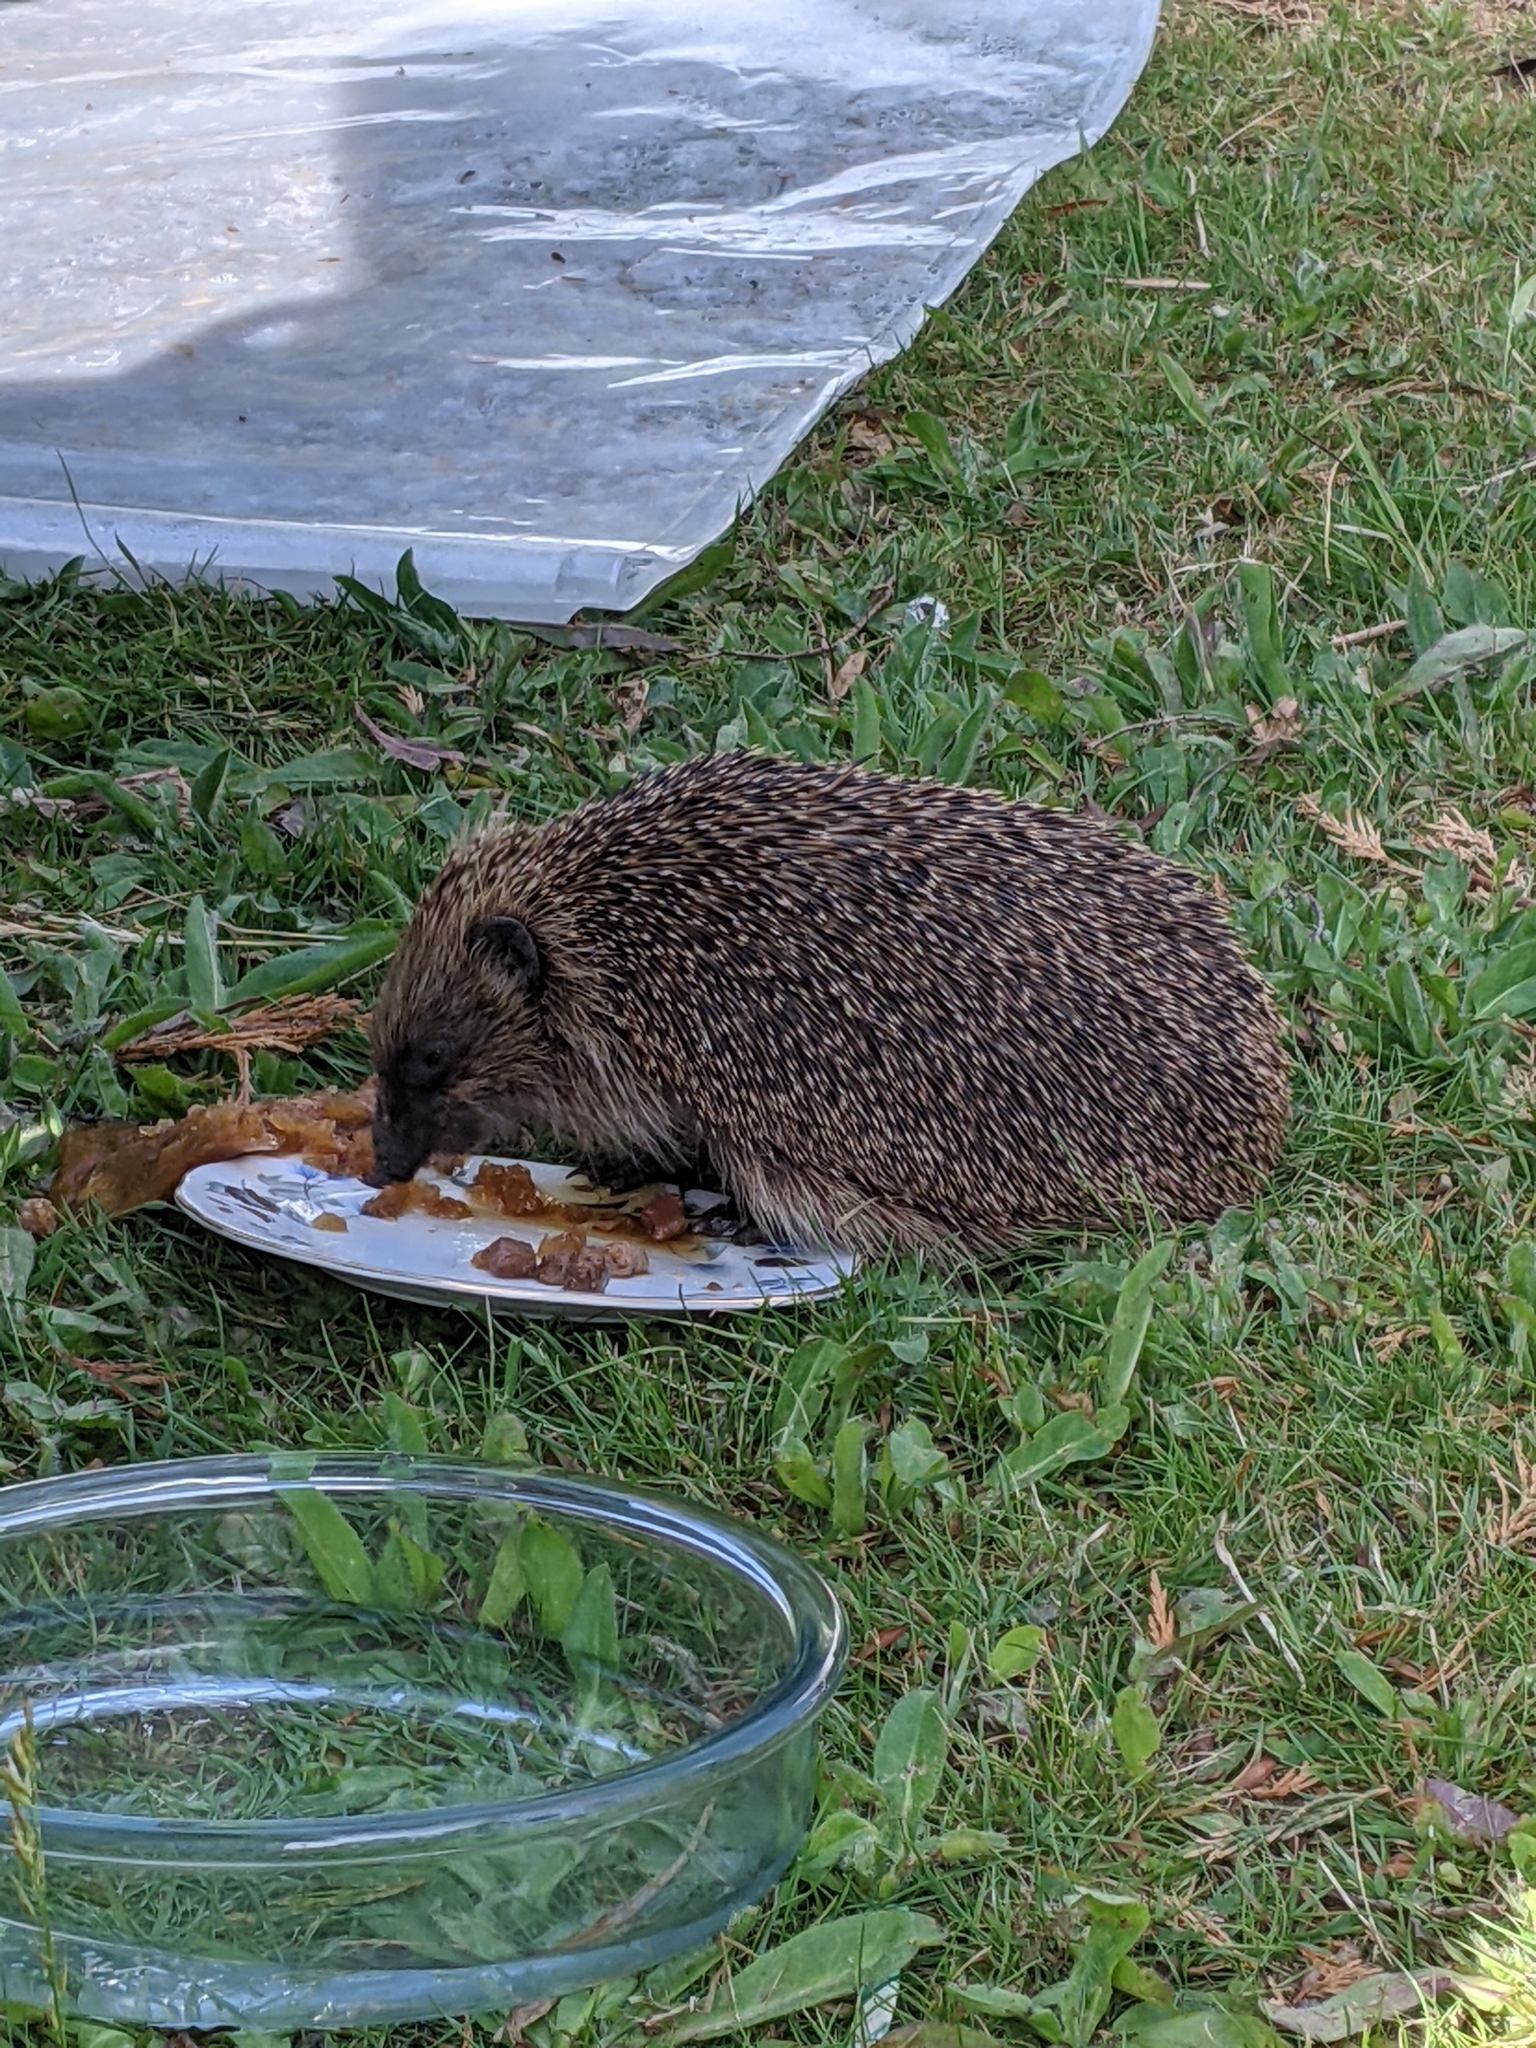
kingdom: Animalia
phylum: Chordata
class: Mammalia
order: Erinaceomorpha
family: Erinaceidae
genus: Erinaceus
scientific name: Erinaceus europaeus
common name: West european hedgehog
